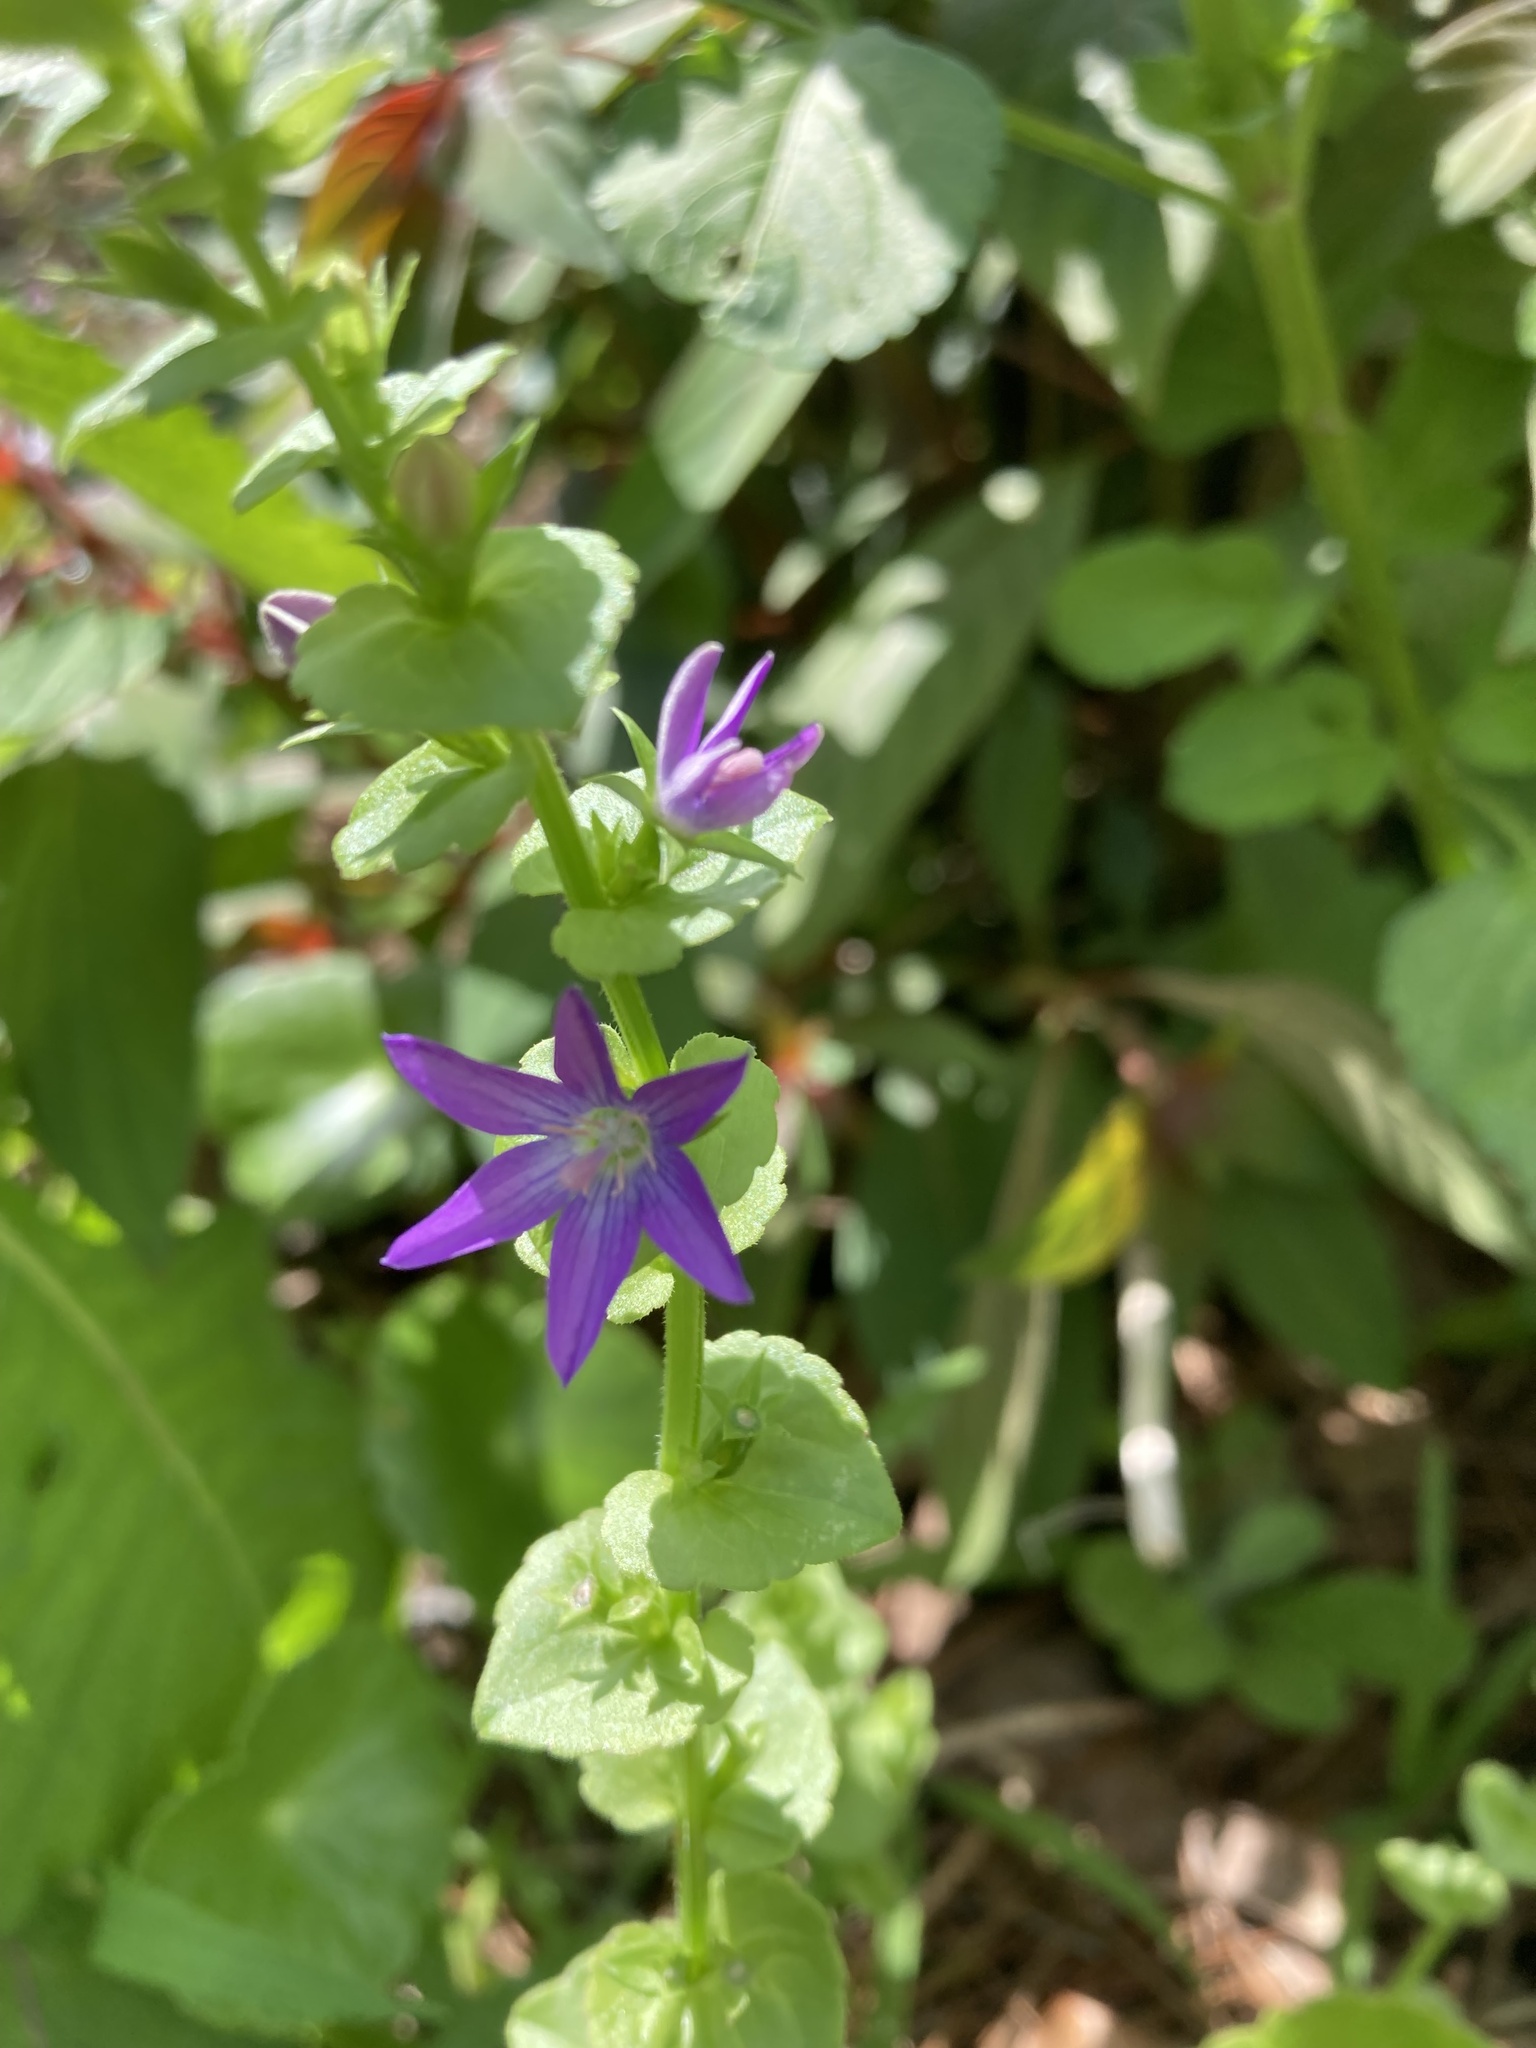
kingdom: Plantae
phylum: Tracheophyta
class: Magnoliopsida
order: Asterales
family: Campanulaceae
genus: Triodanis
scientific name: Triodanis perfoliata
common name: Clasping venus' looking-glass
